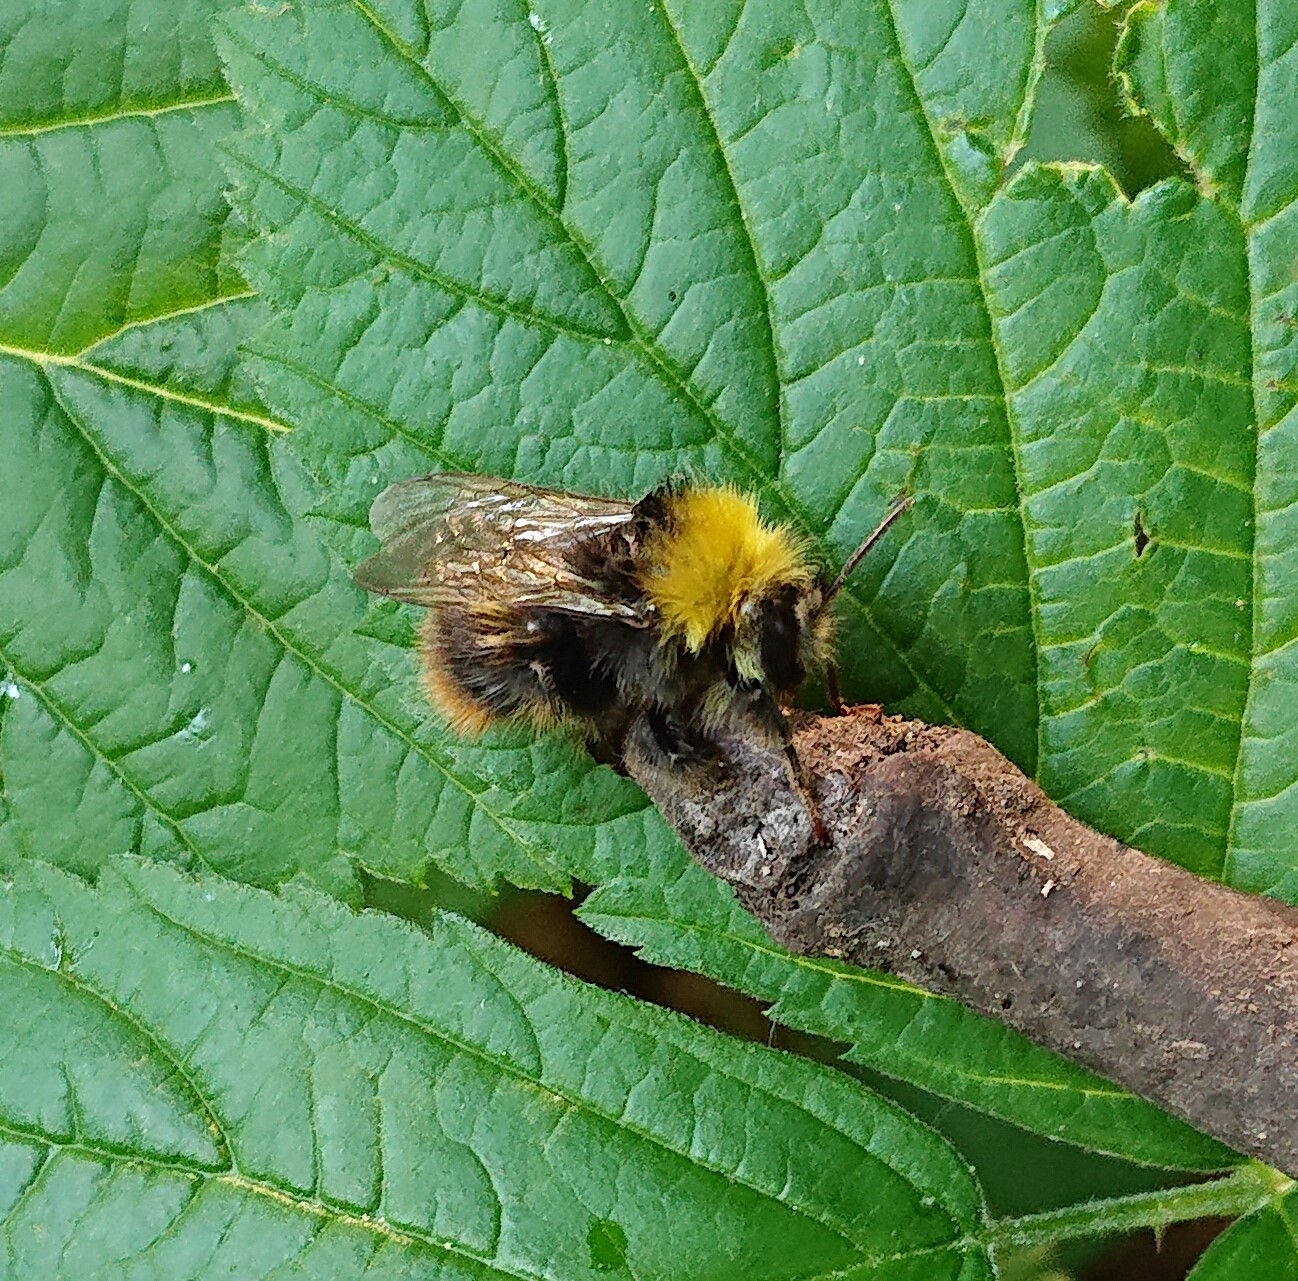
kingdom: Animalia
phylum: Arthropoda
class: Insecta
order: Hymenoptera
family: Apidae
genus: Bombus
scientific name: Bombus pratorum
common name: Early humble-bee
